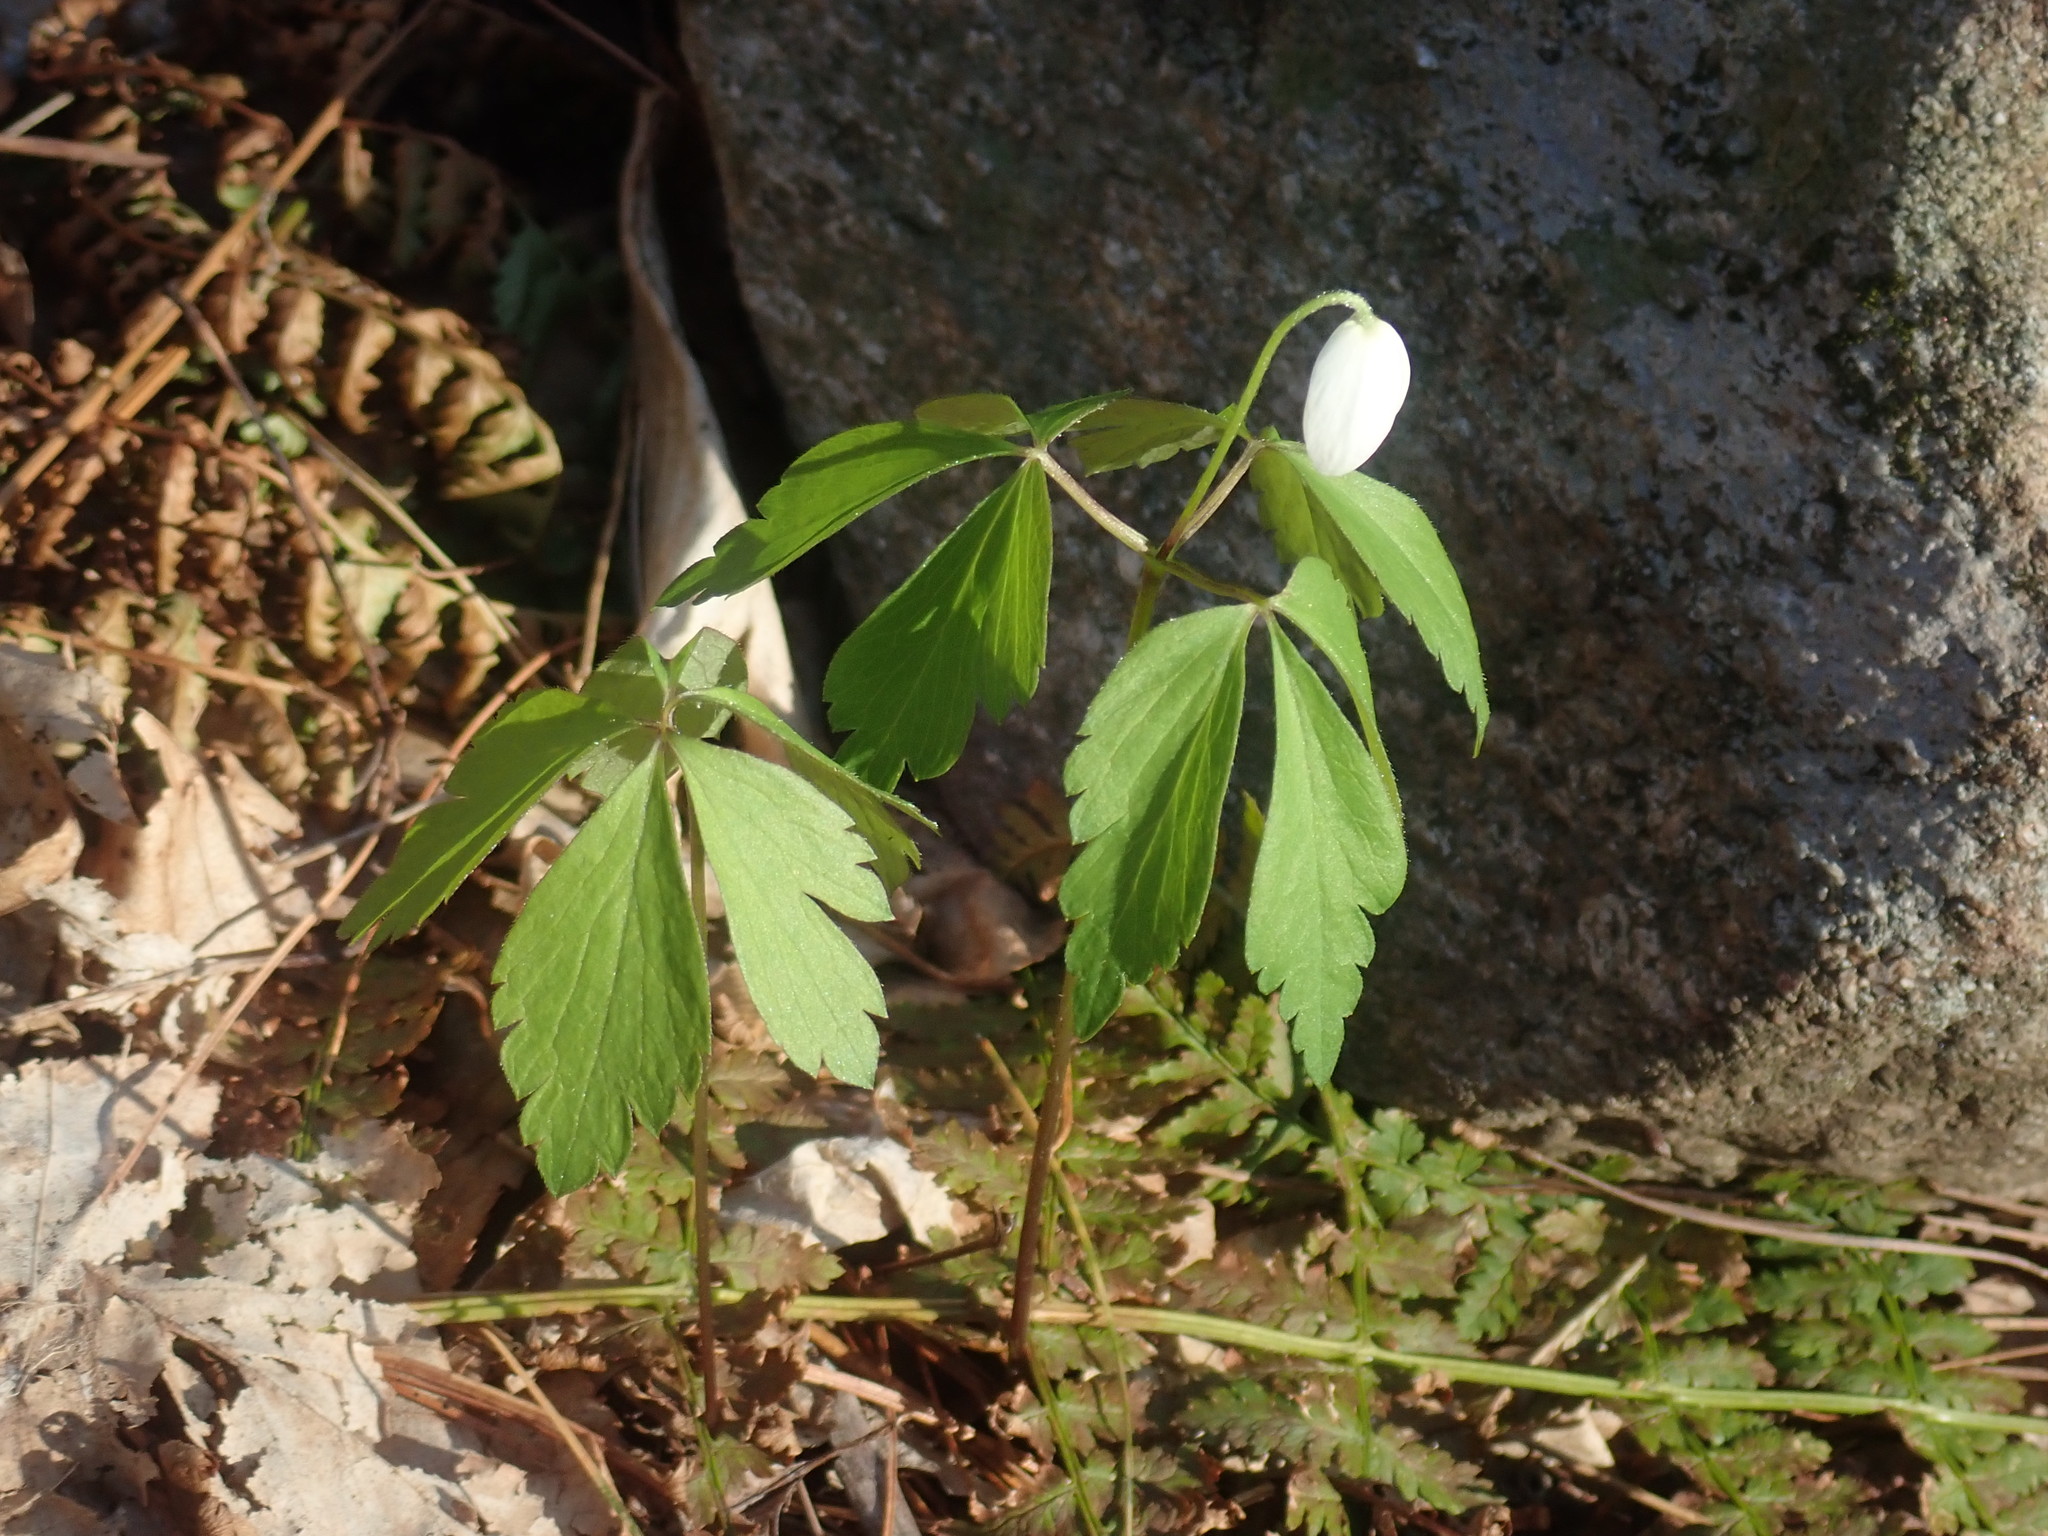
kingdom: Plantae
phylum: Tracheophyta
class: Magnoliopsida
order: Ranunculales
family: Ranunculaceae
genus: Anemone
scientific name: Anemone quinquefolia
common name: Wood anemone
